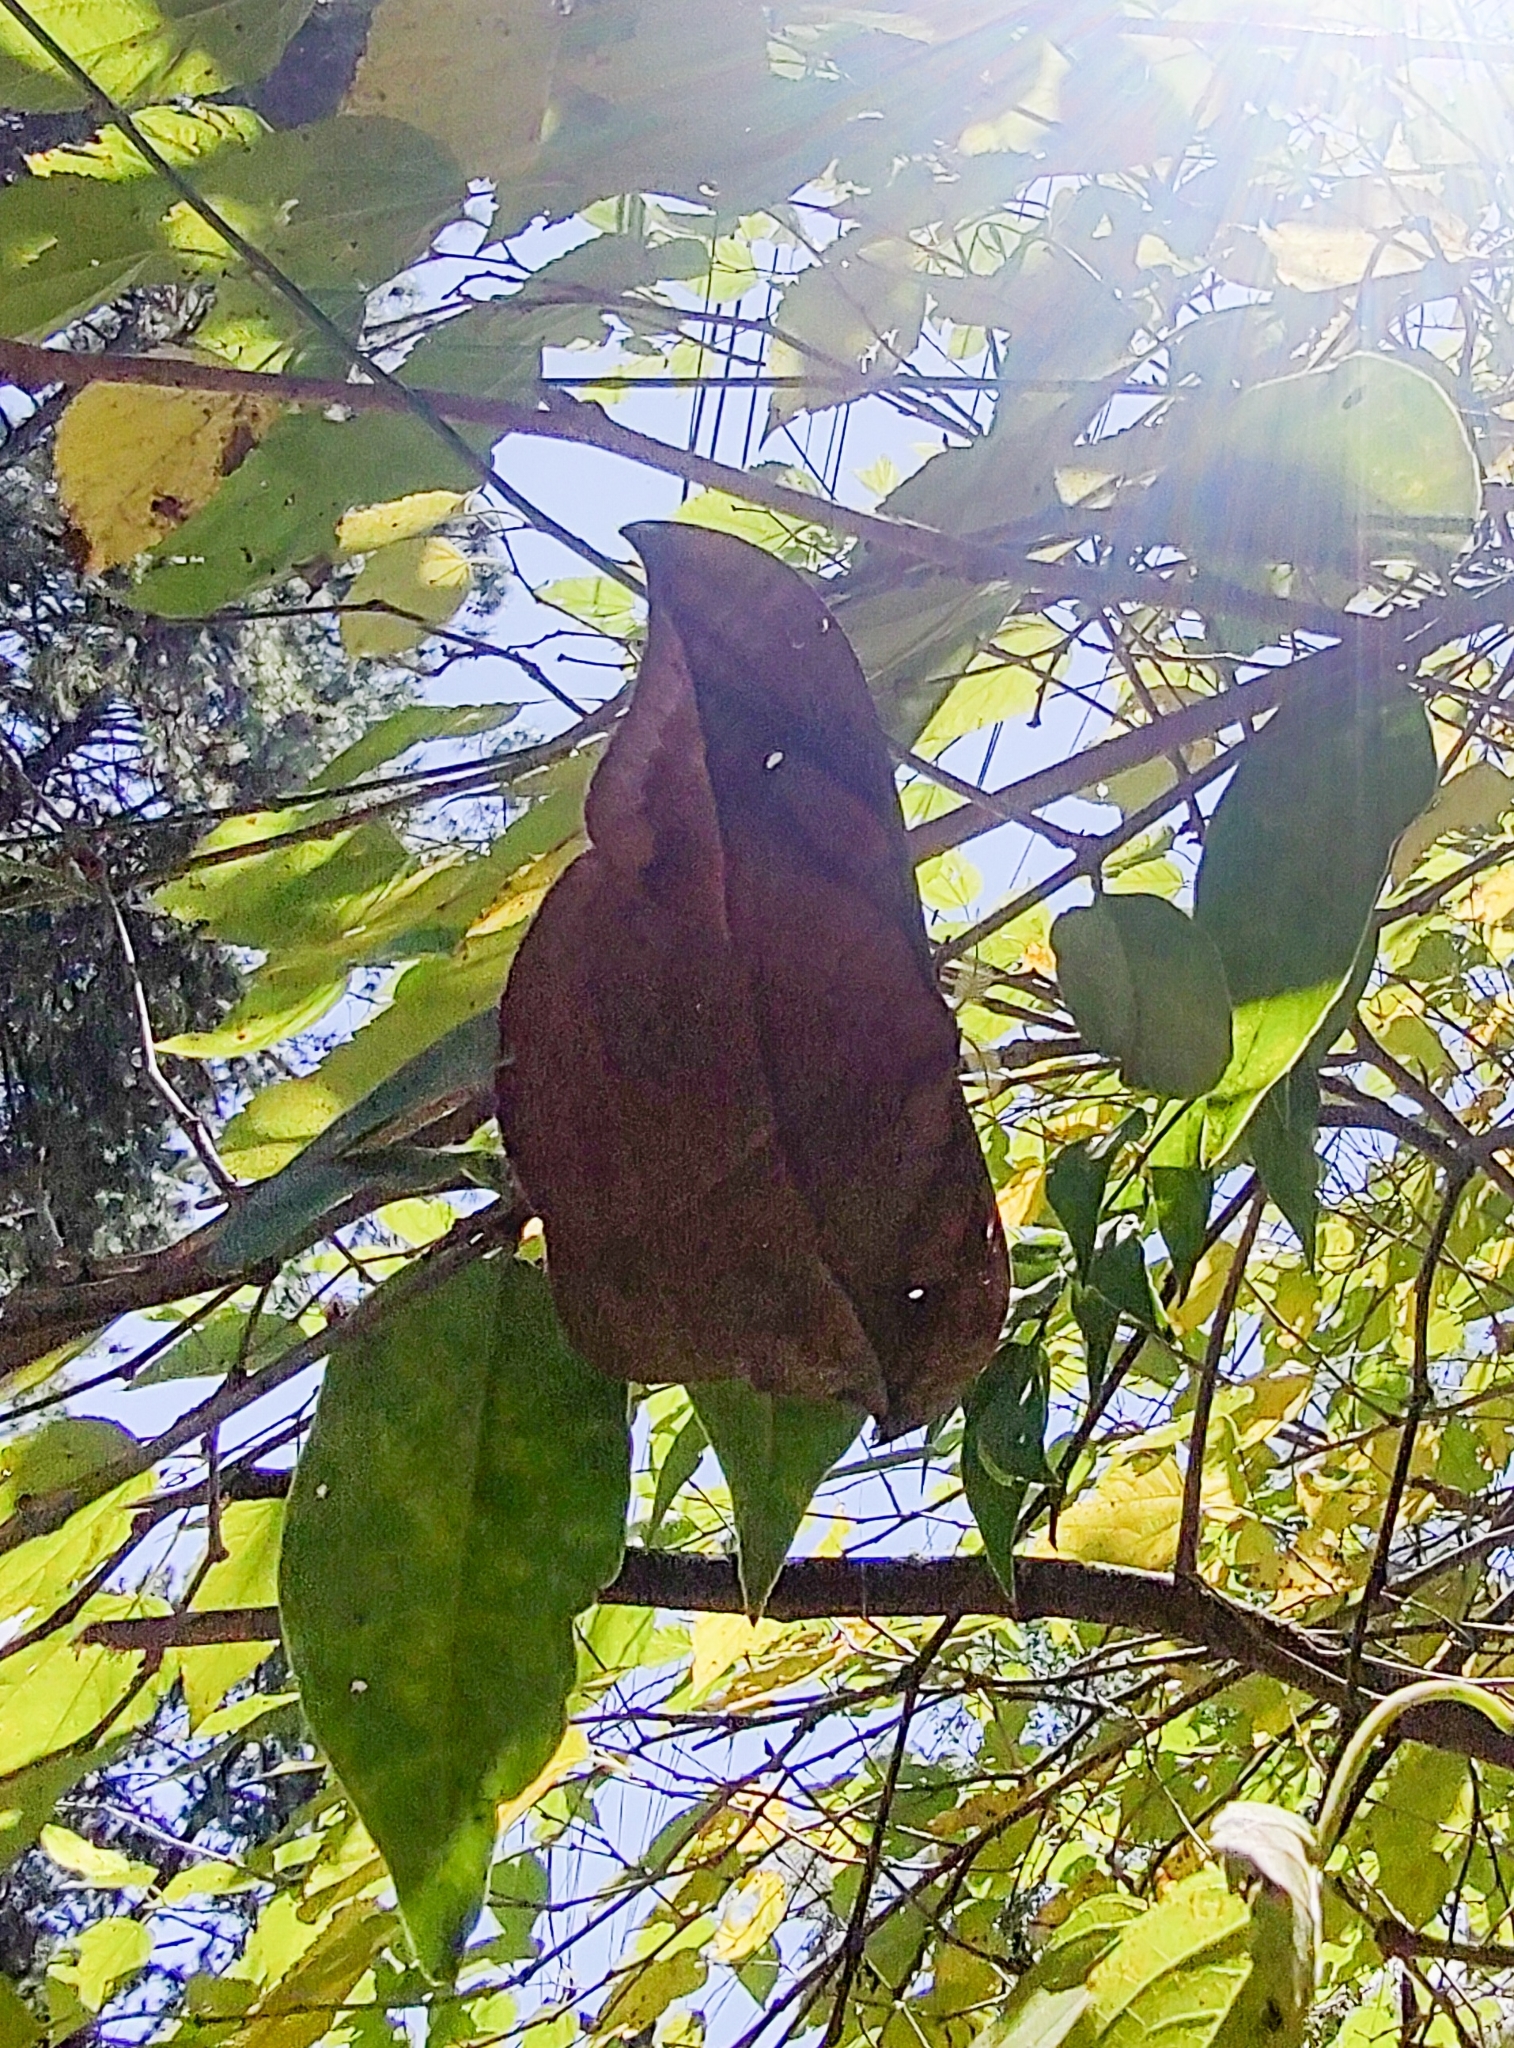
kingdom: Animalia
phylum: Arthropoda
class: Insecta
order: Lepidoptera
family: Saturniidae
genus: Copaxa
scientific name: Copaxa decrescens
